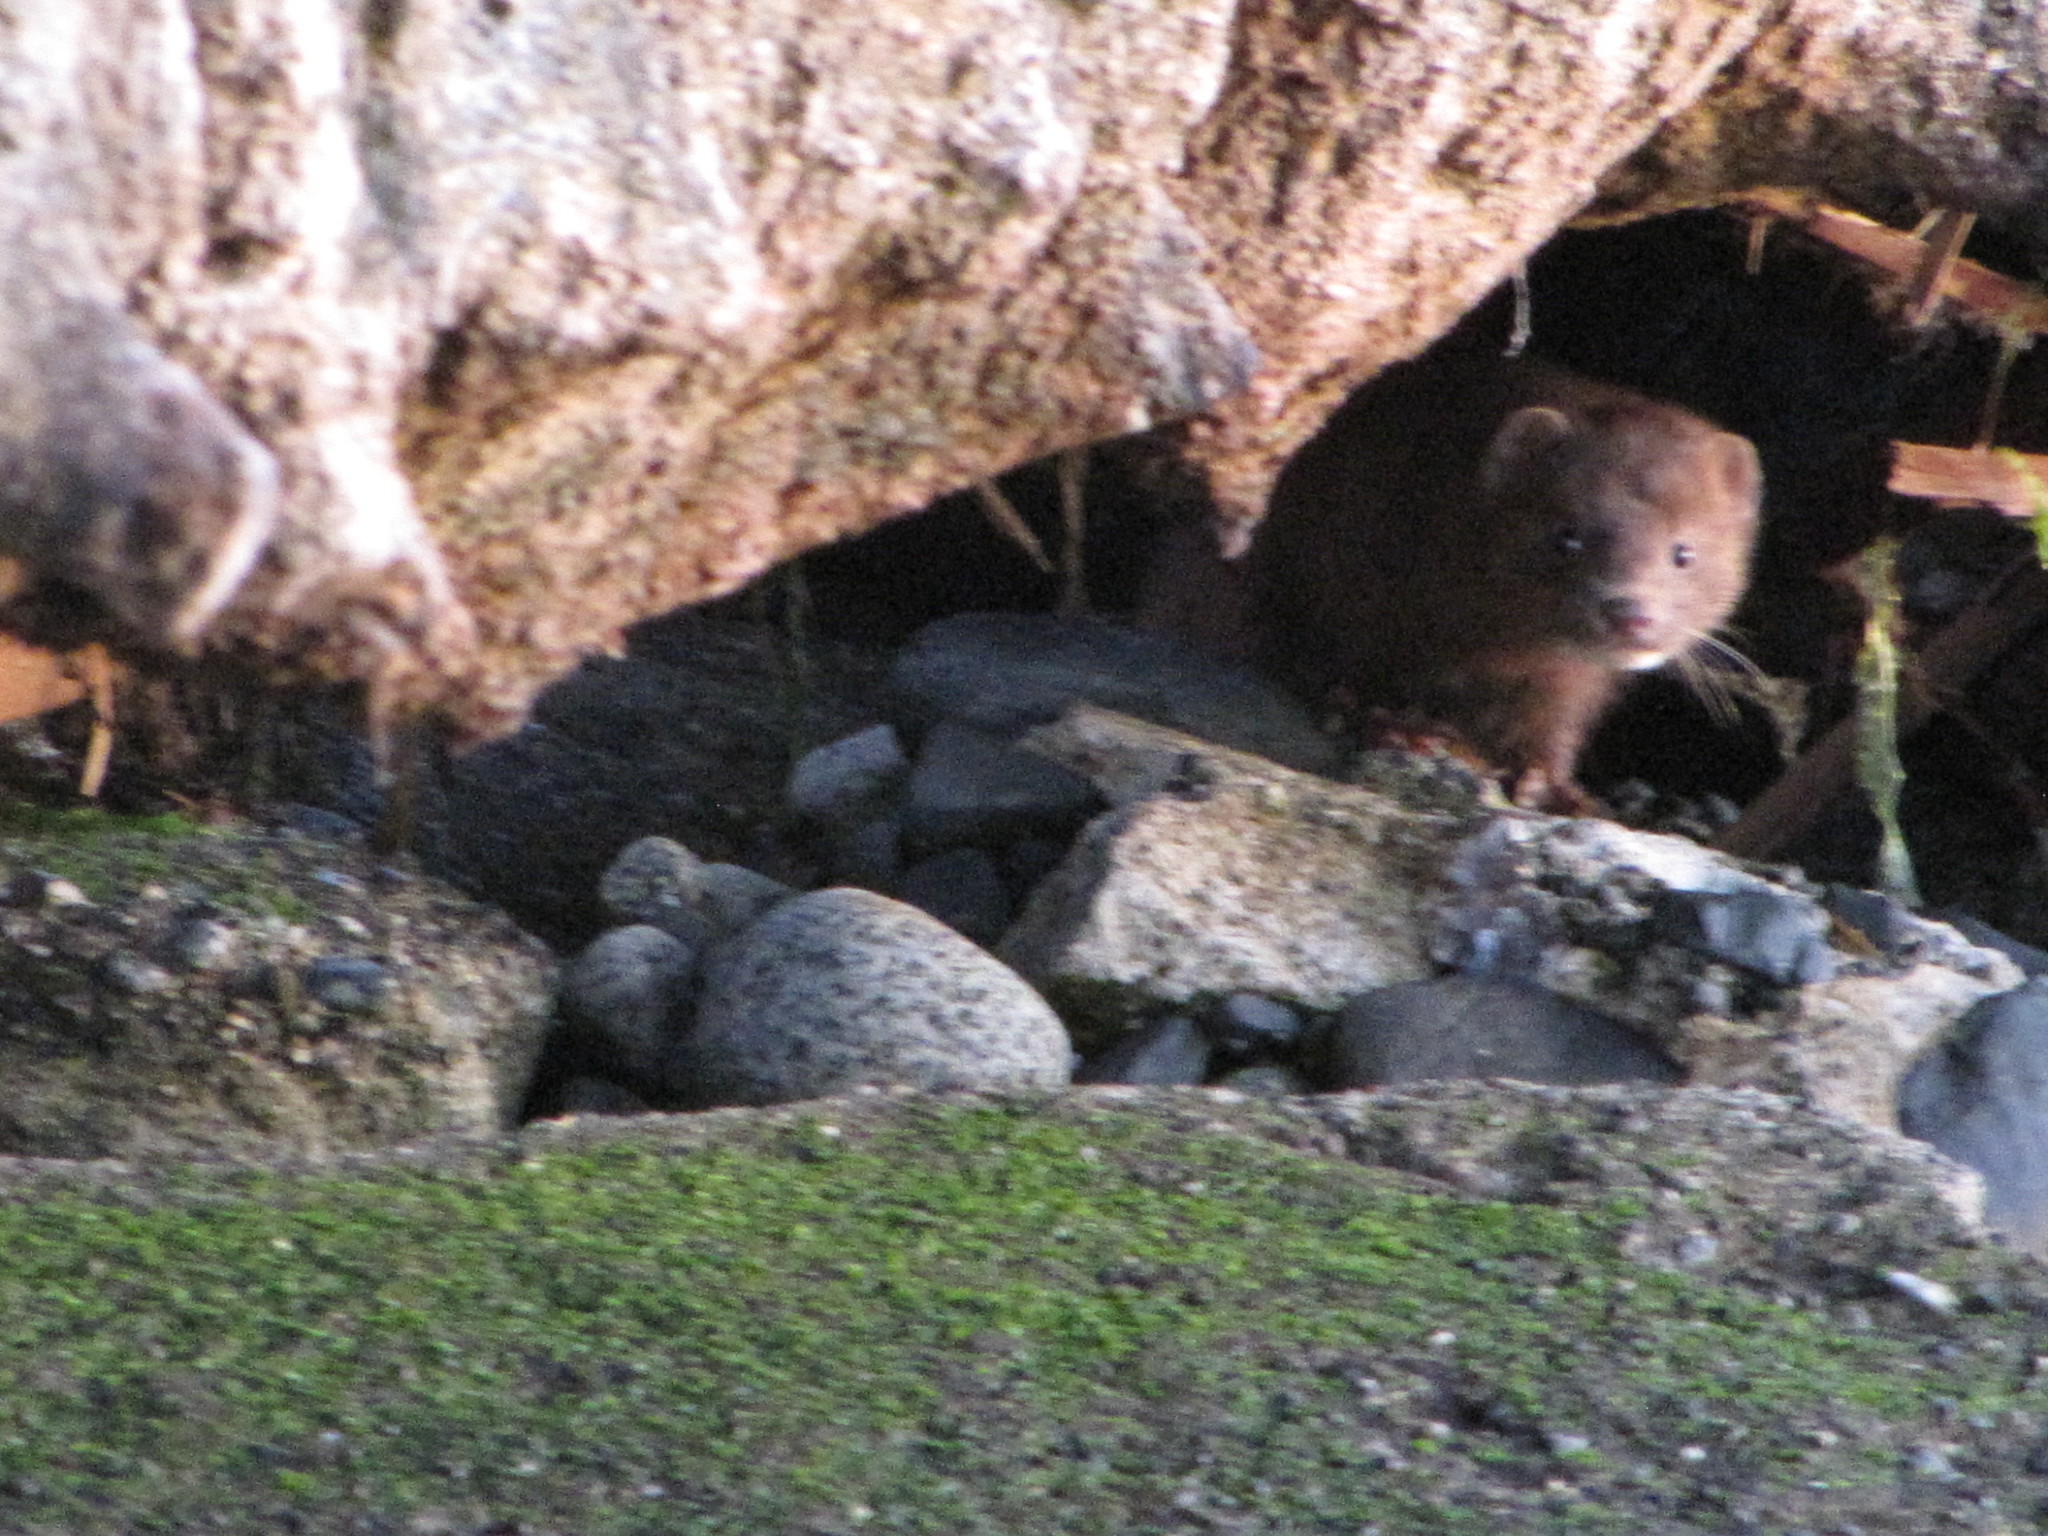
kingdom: Animalia
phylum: Chordata
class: Mammalia
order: Carnivora
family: Mustelidae
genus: Mustela
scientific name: Mustela
